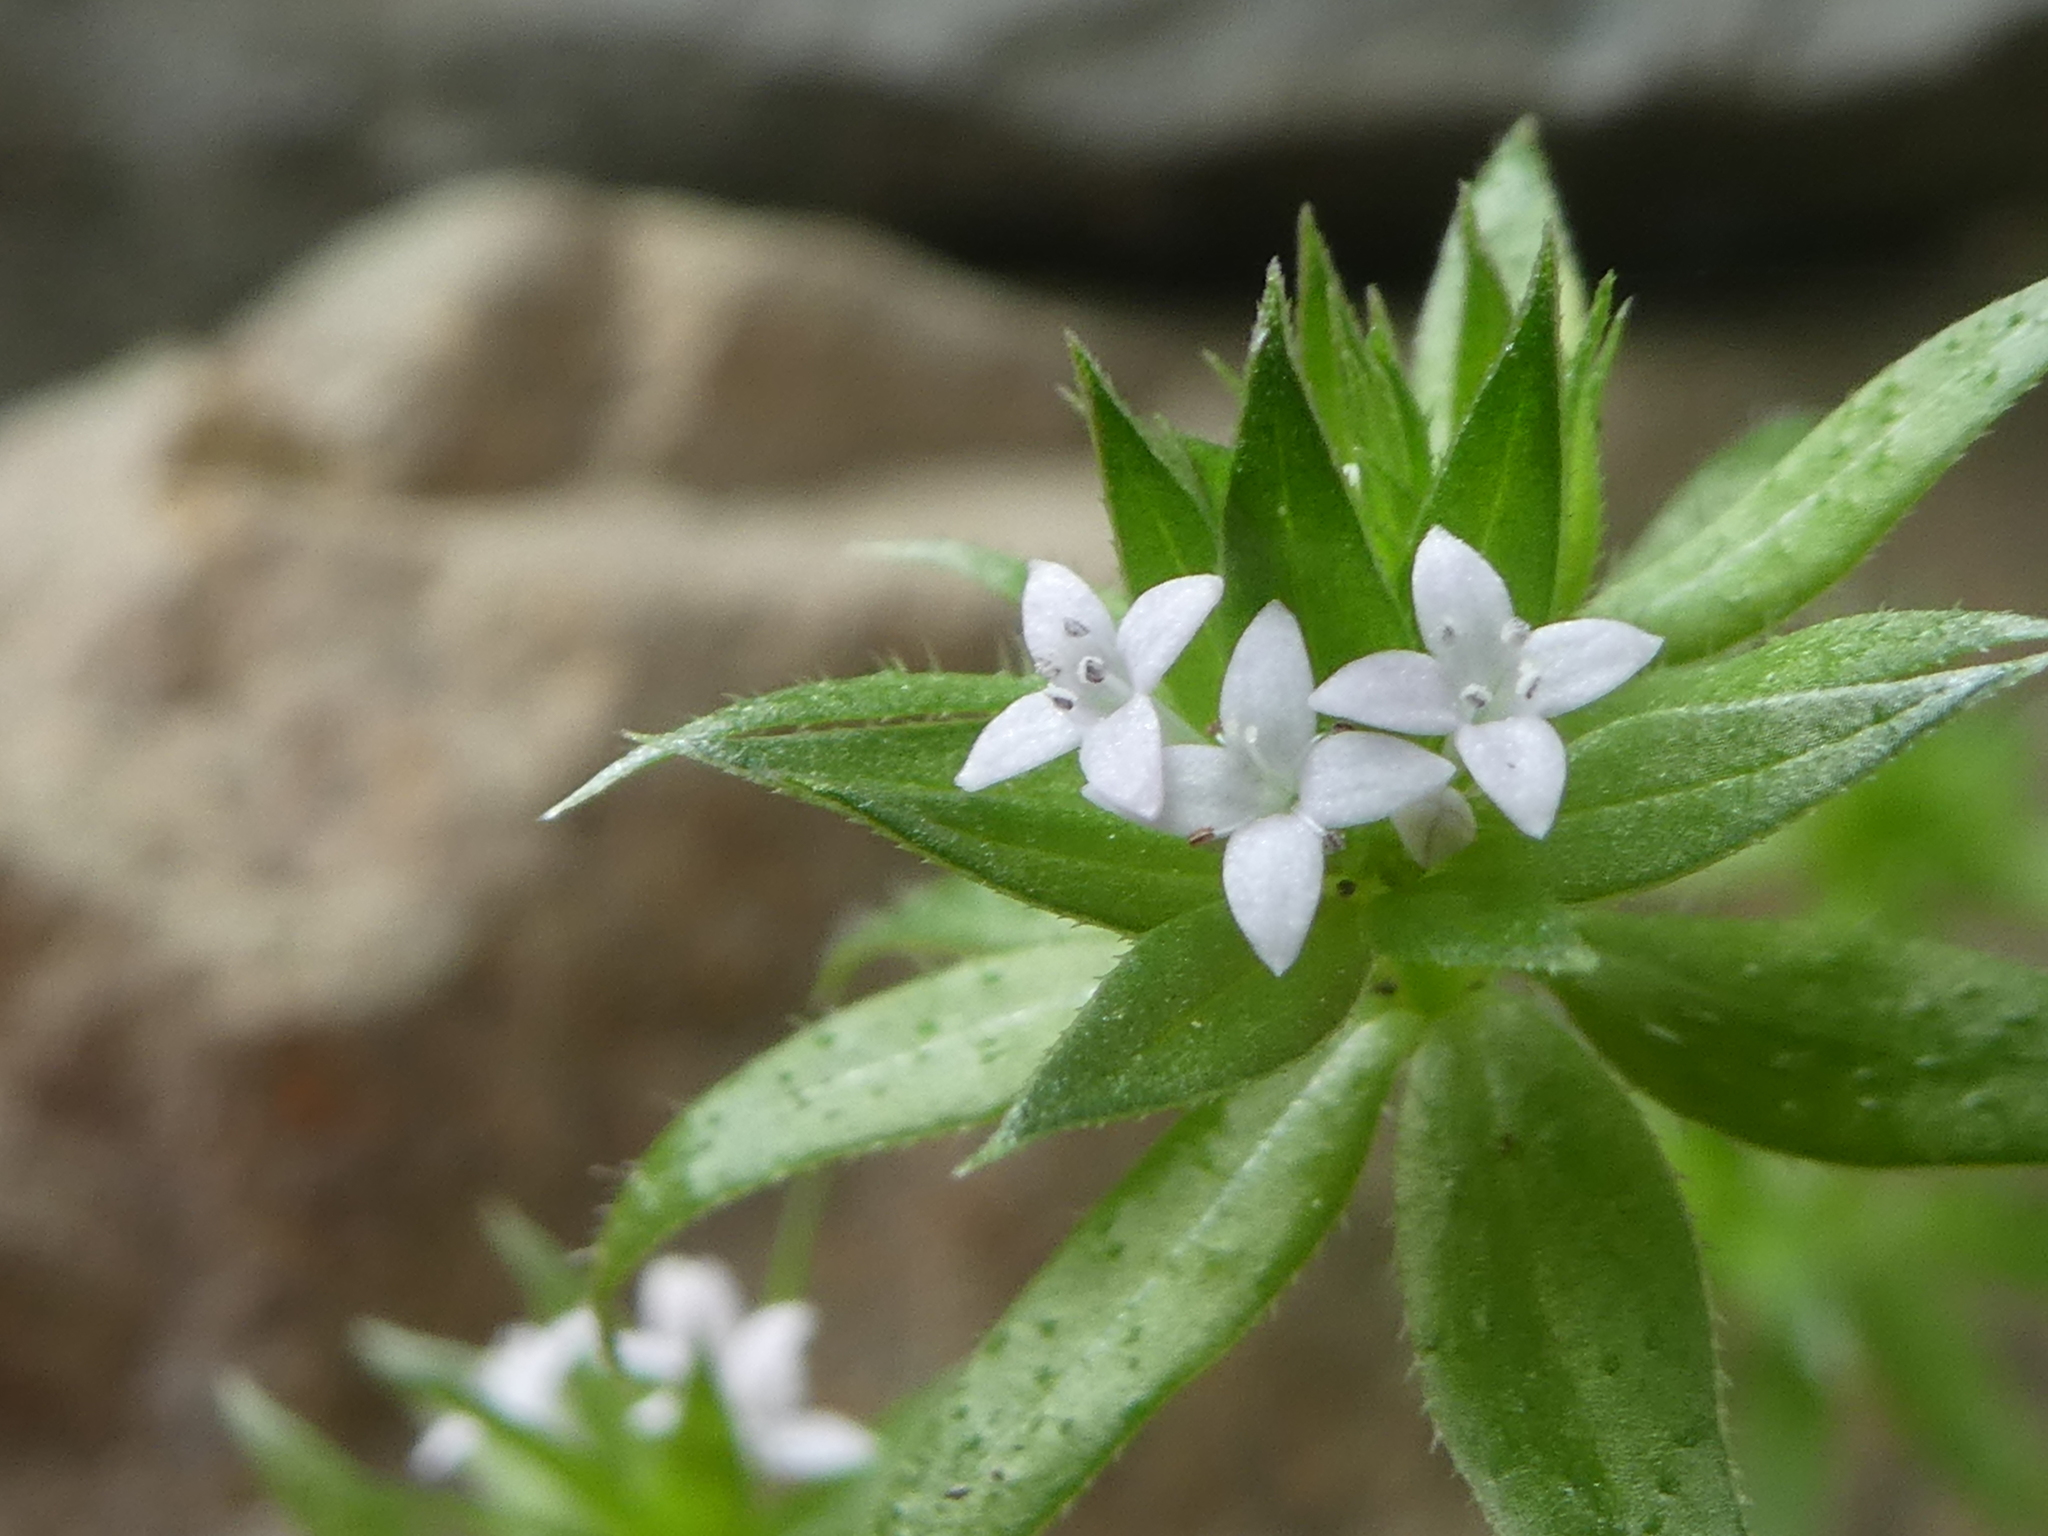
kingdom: Plantae
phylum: Tracheophyta
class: Magnoliopsida
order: Gentianales
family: Rubiaceae
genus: Sherardia
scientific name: Sherardia arvensis
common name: Field madder
